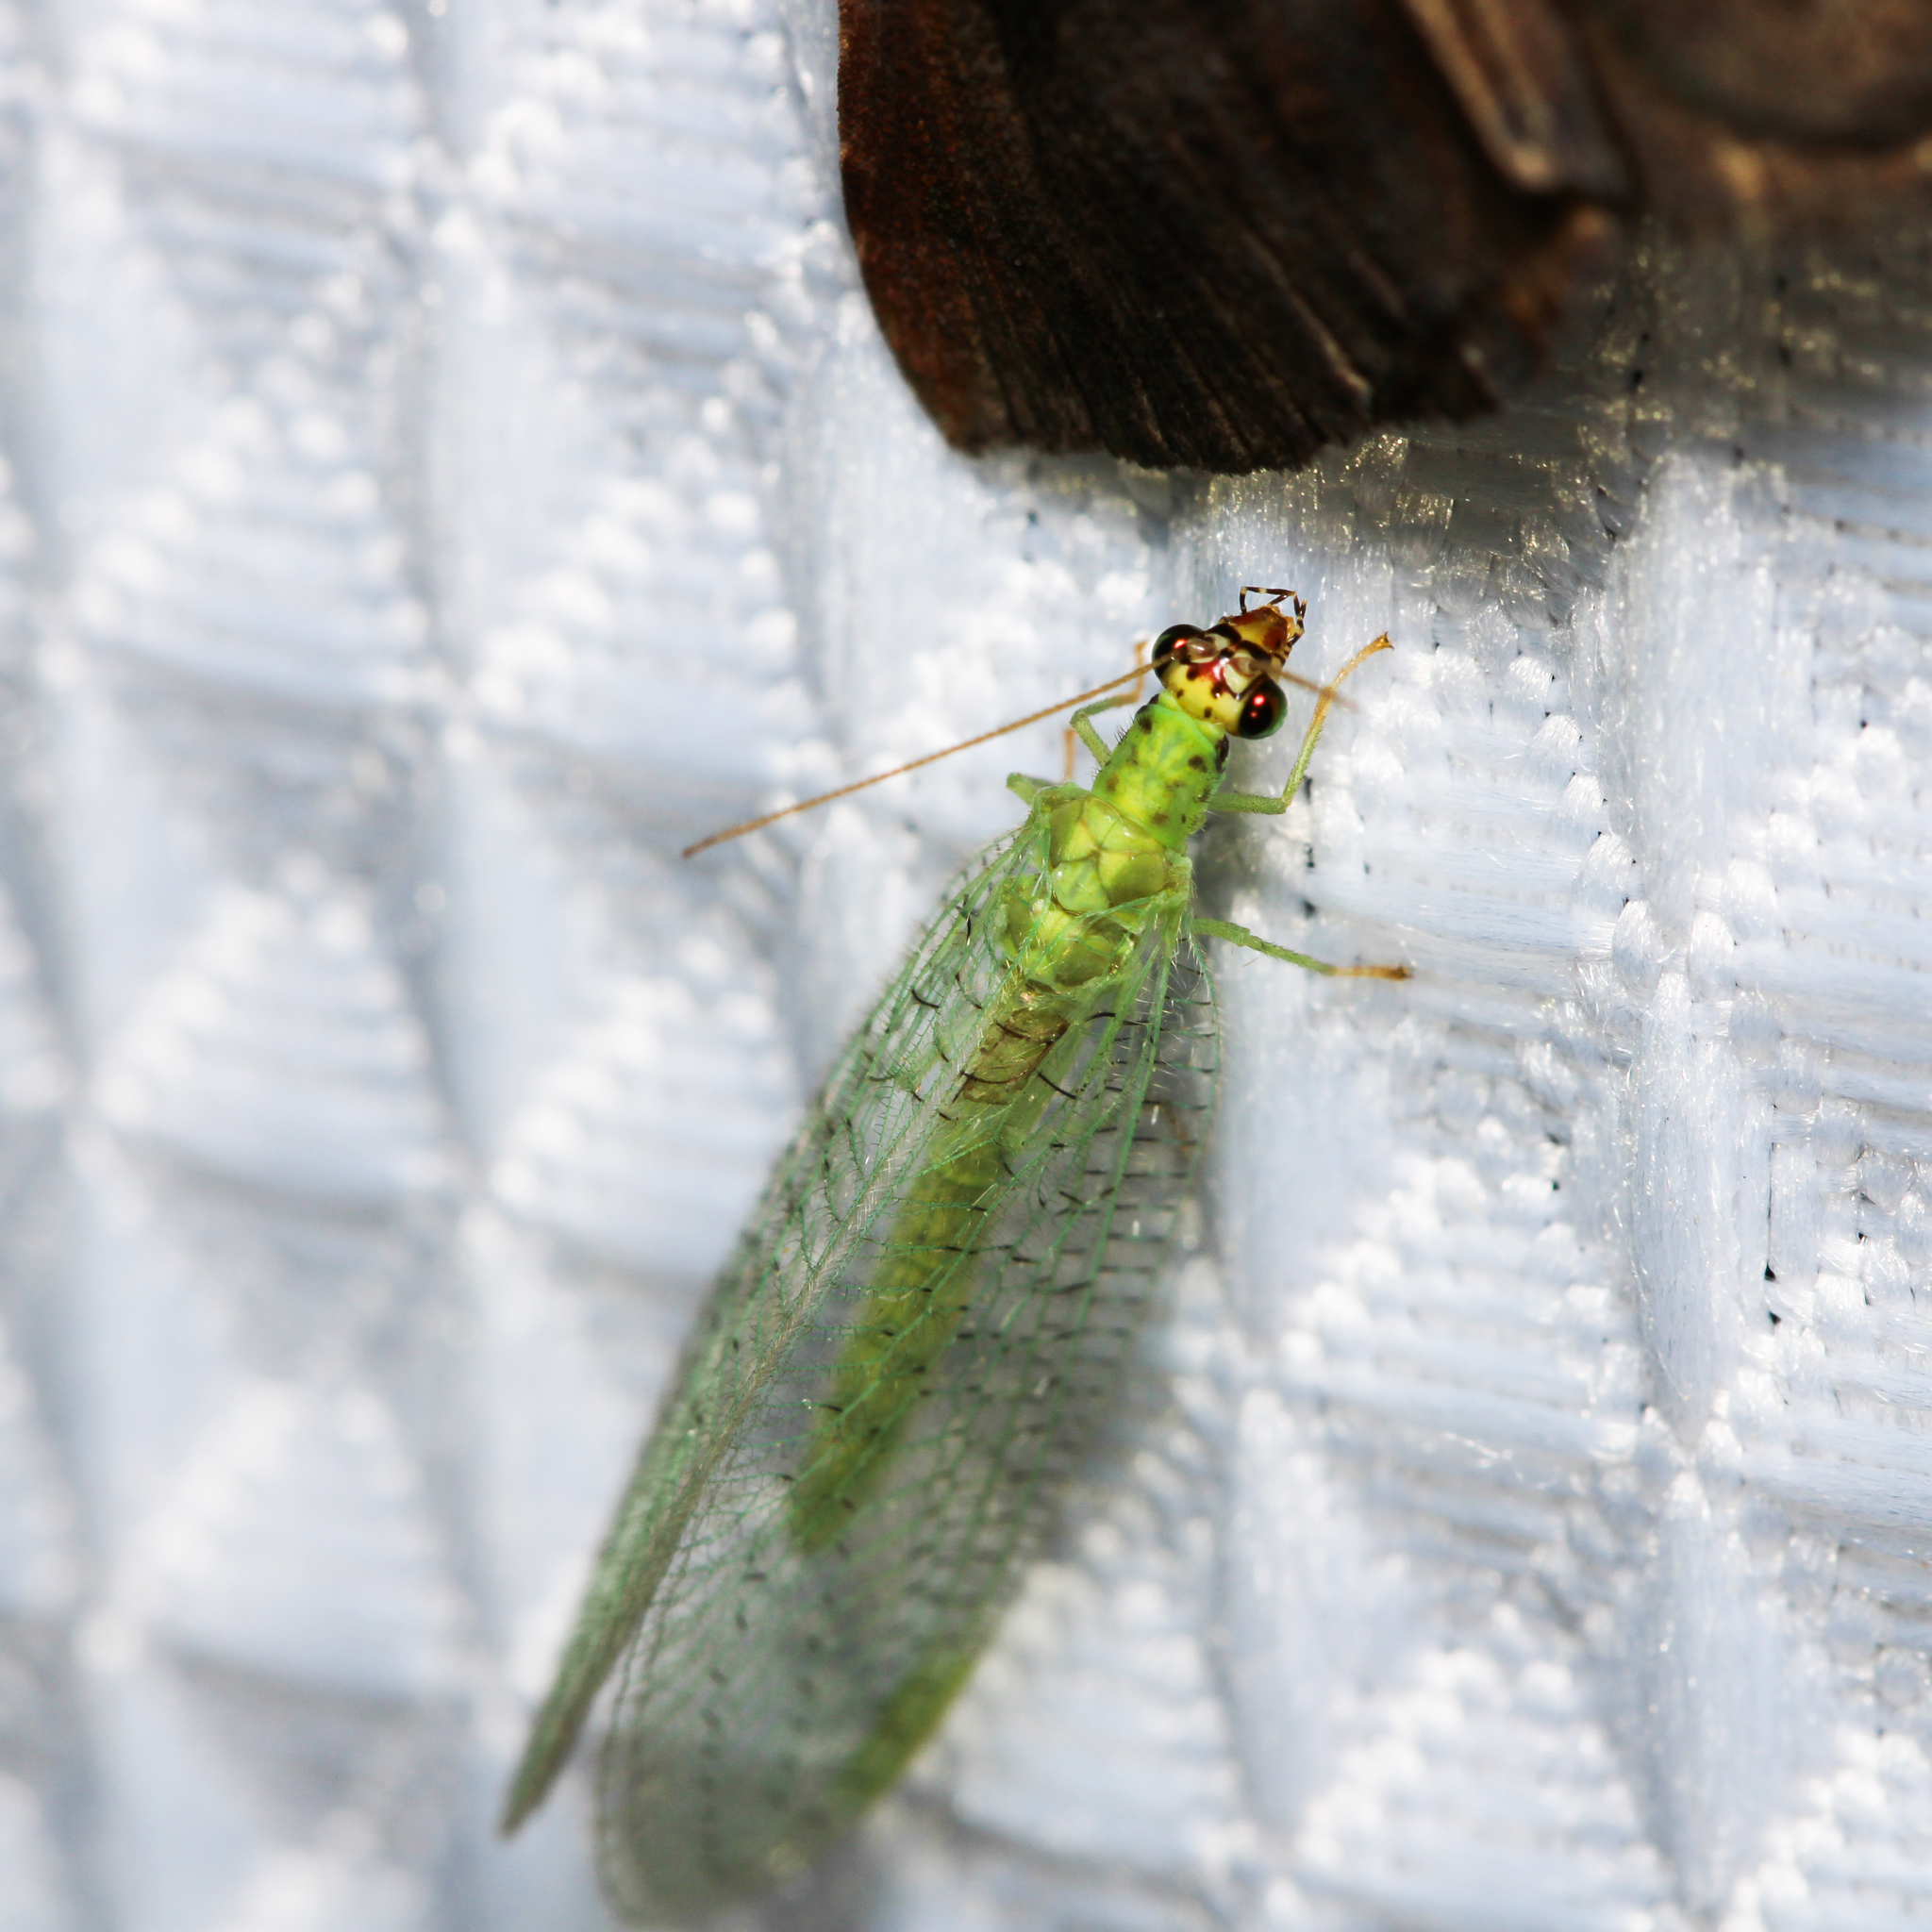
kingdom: Animalia
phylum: Arthropoda
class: Insecta
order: Neuroptera
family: Chrysopidae
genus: Chrysopa
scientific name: Chrysopa oculata
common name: Golden-eyed lacewing
